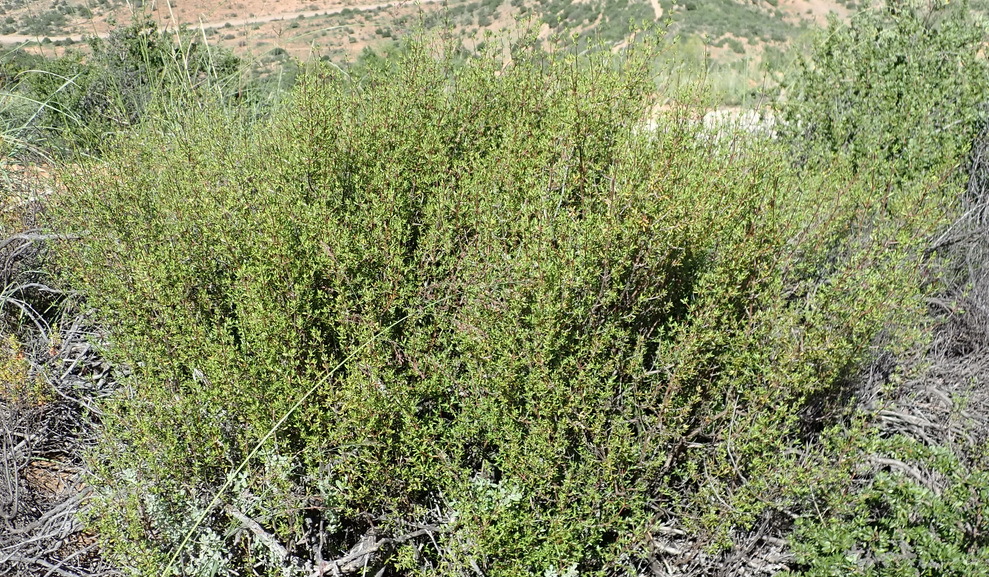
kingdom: Plantae
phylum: Tracheophyta
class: Magnoliopsida
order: Gentianales
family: Rubiaceae
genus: Anthospermum
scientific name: Anthospermum spathulatum
